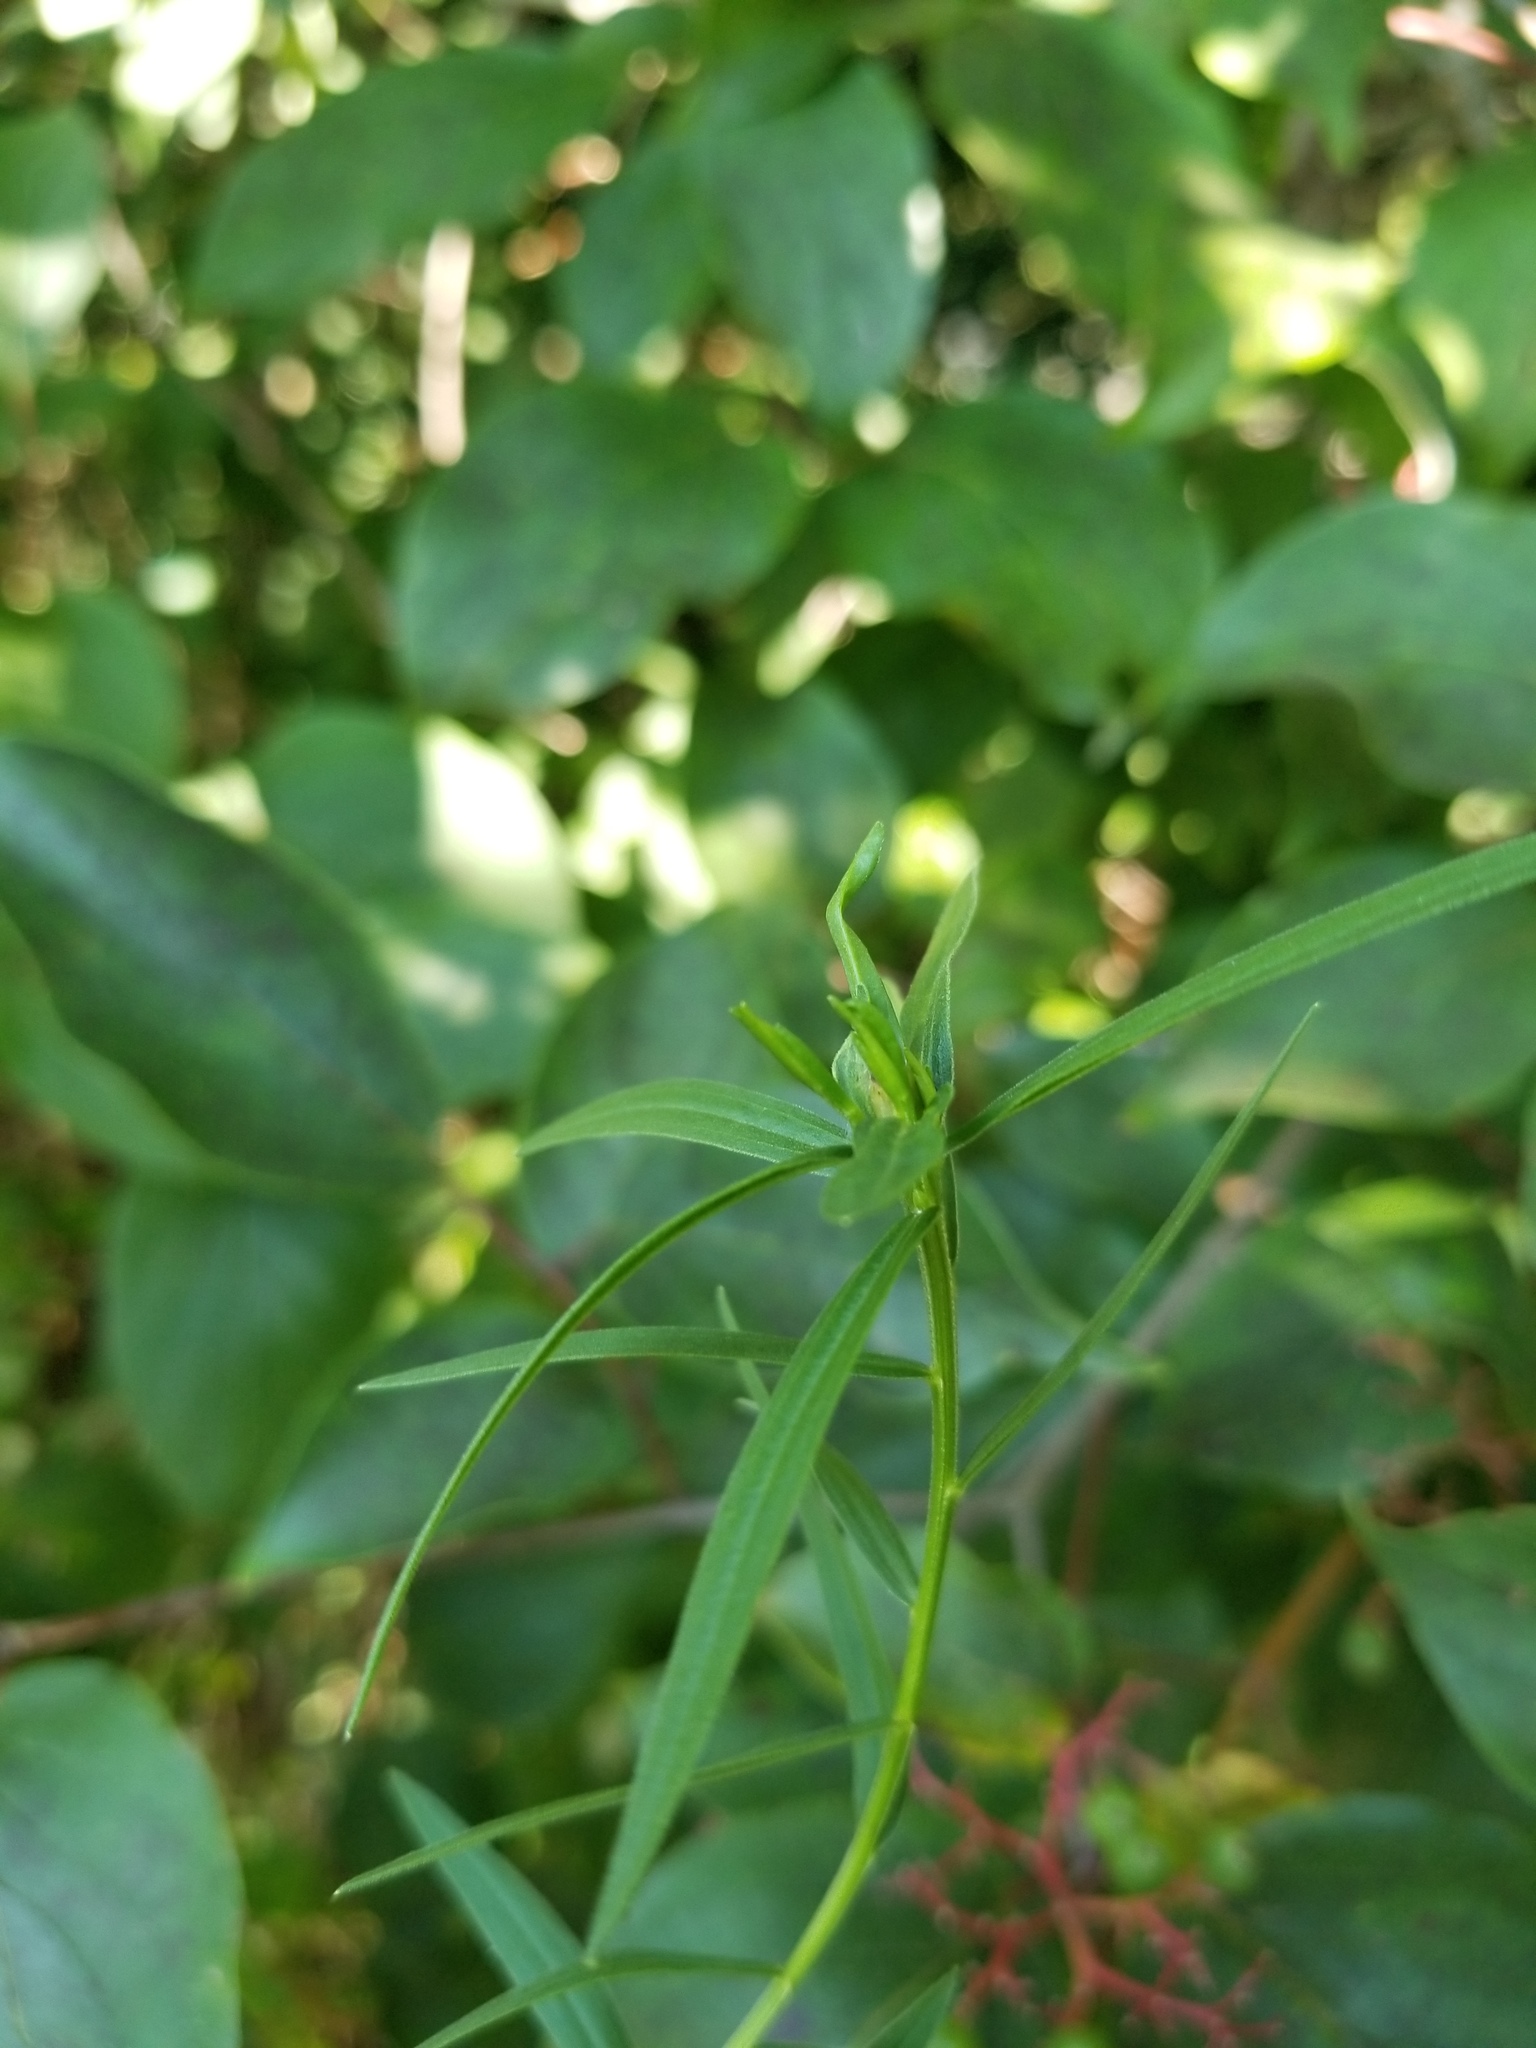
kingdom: Animalia
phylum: Arthropoda
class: Insecta
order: Diptera
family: Cecidomyiidae
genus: Asphondylia
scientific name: Asphondylia pseudorosa
